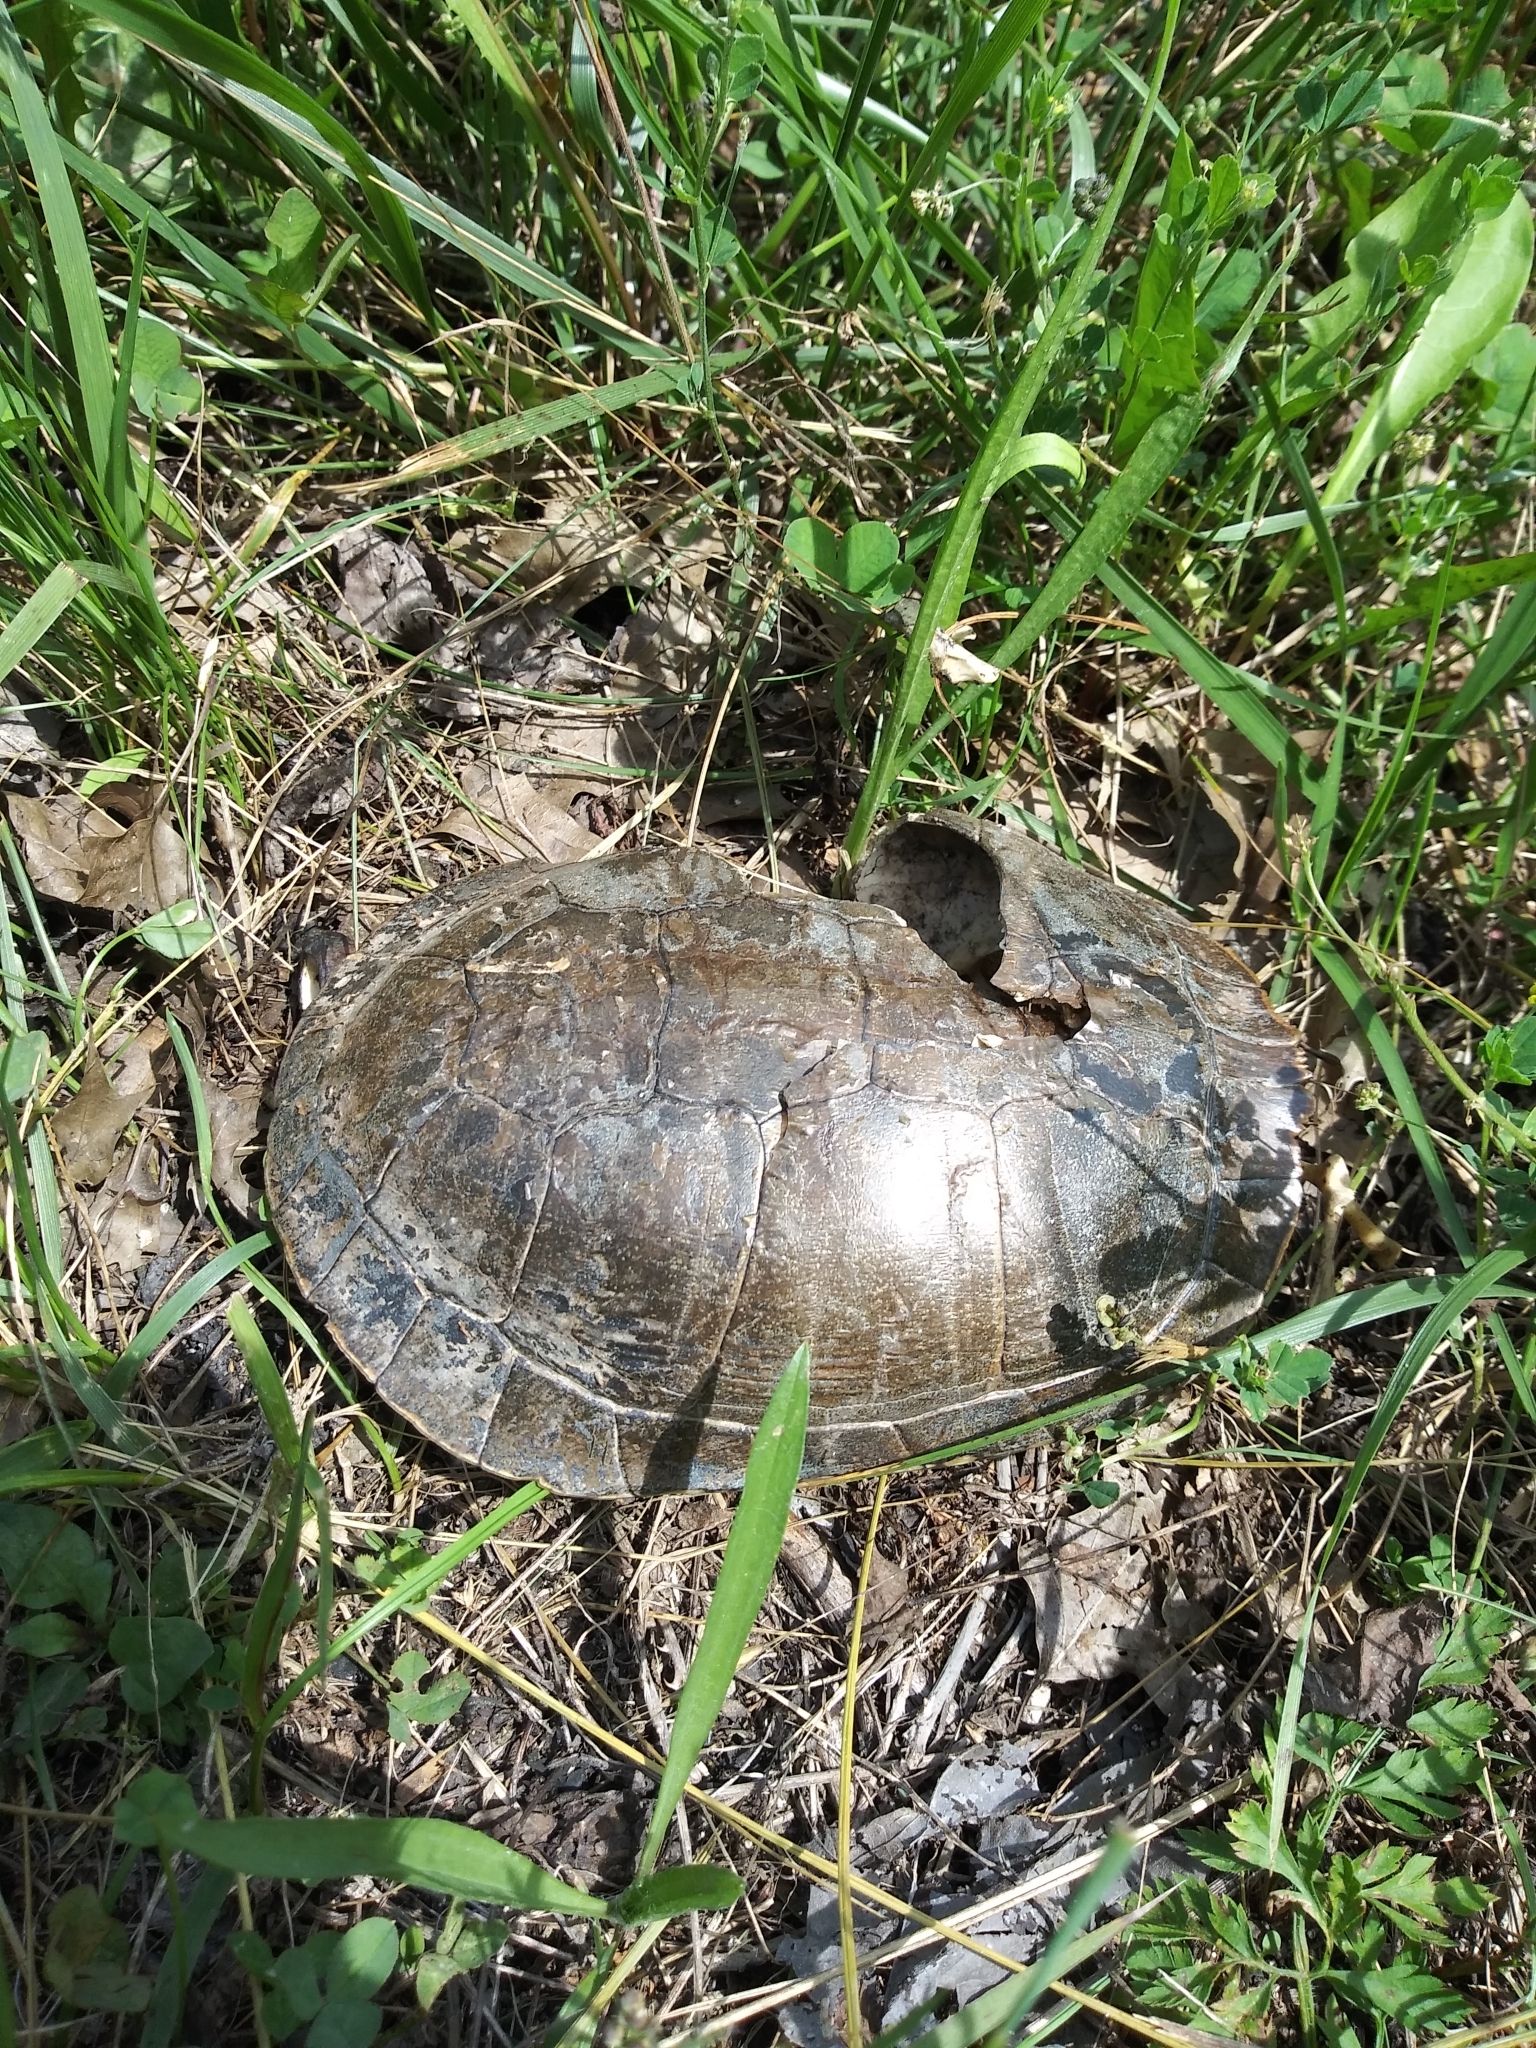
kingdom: Animalia
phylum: Chordata
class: Testudines
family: Emydidae
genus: Chrysemys
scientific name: Chrysemys picta
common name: Painted turtle
